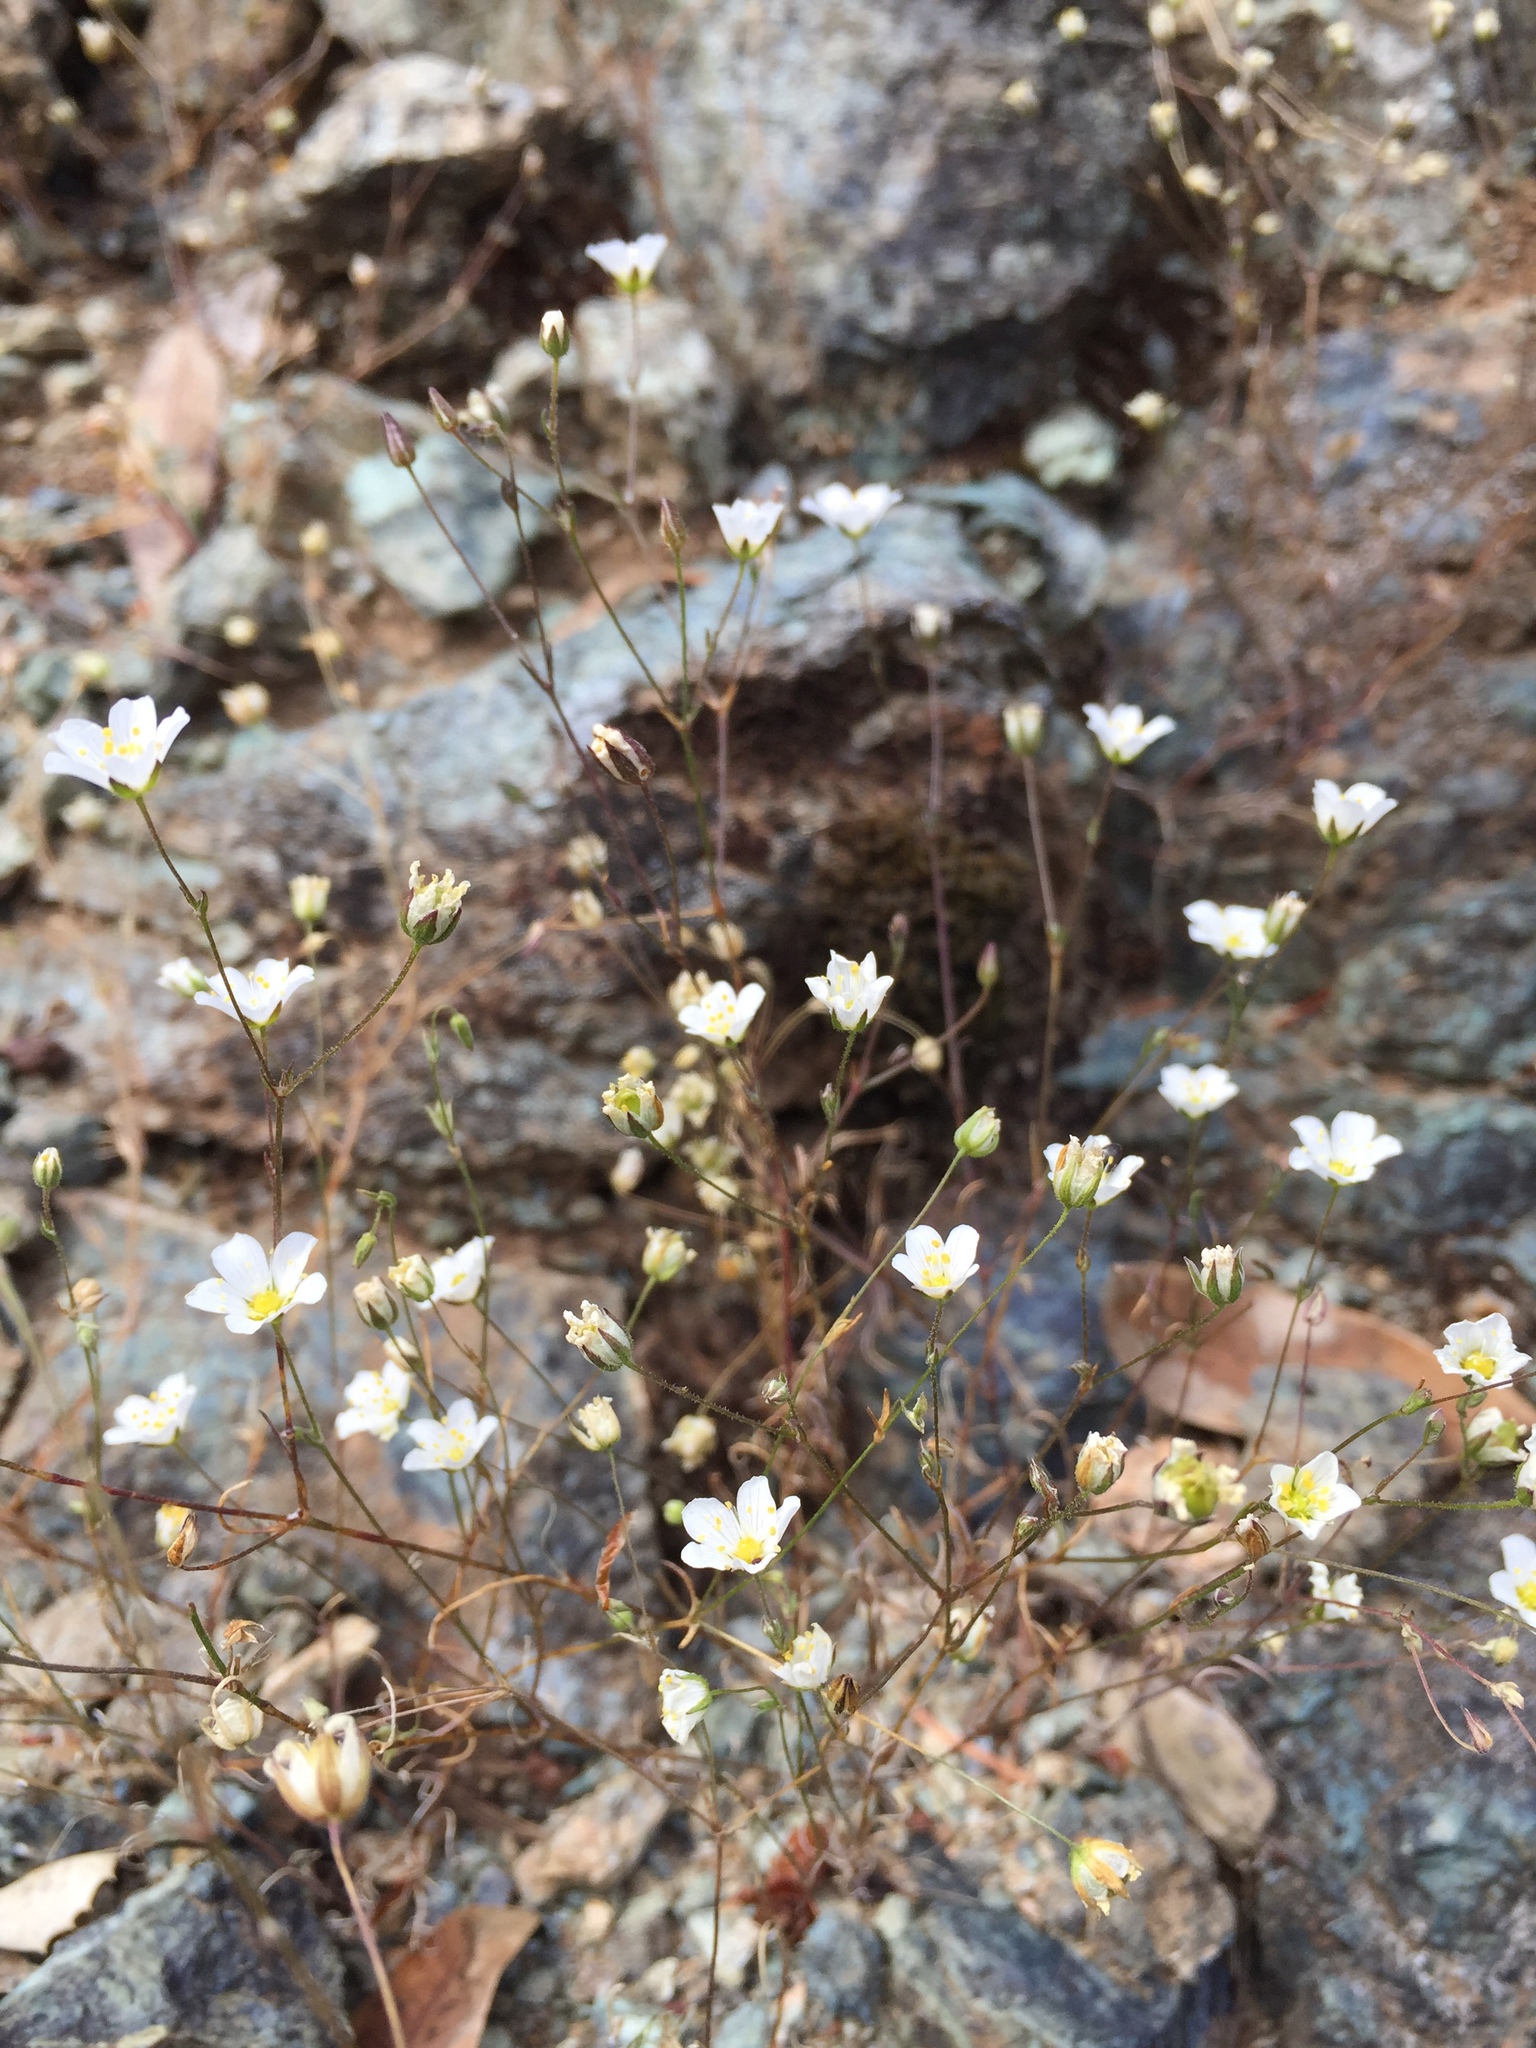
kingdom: Plantae
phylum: Tracheophyta
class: Magnoliopsida
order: Caryophyllales
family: Caryophyllaceae
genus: Sabulina
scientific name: Sabulina douglasii
